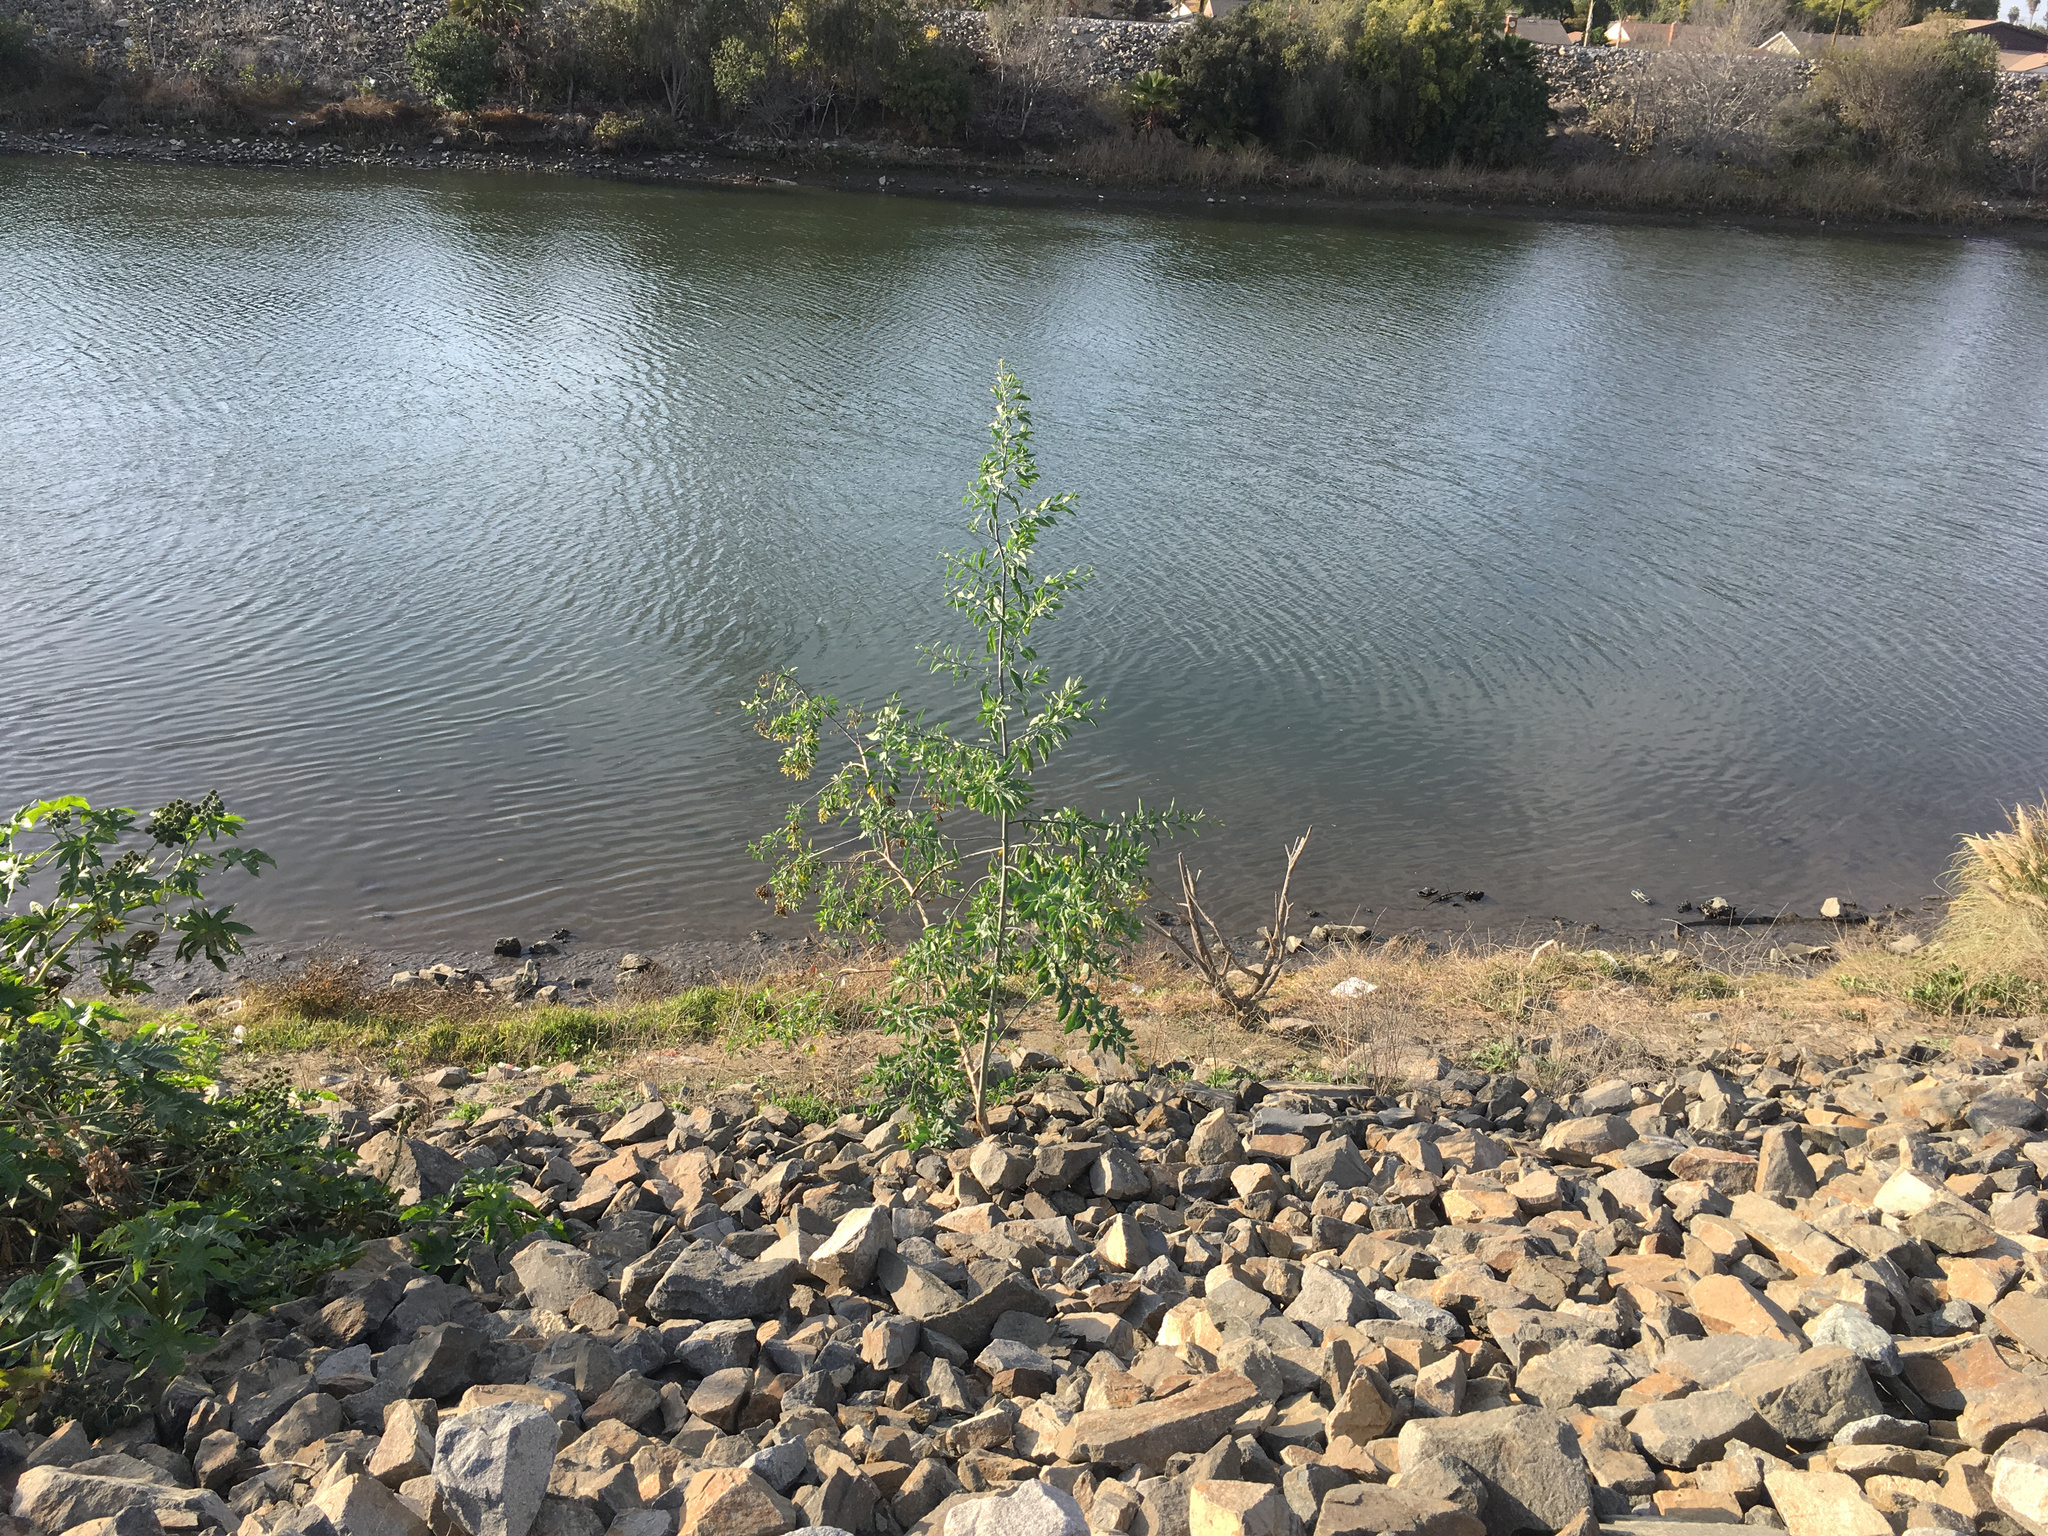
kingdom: Plantae
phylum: Tracheophyta
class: Magnoliopsida
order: Solanales
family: Solanaceae
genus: Nicotiana
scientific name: Nicotiana glauca
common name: Tree tobacco
